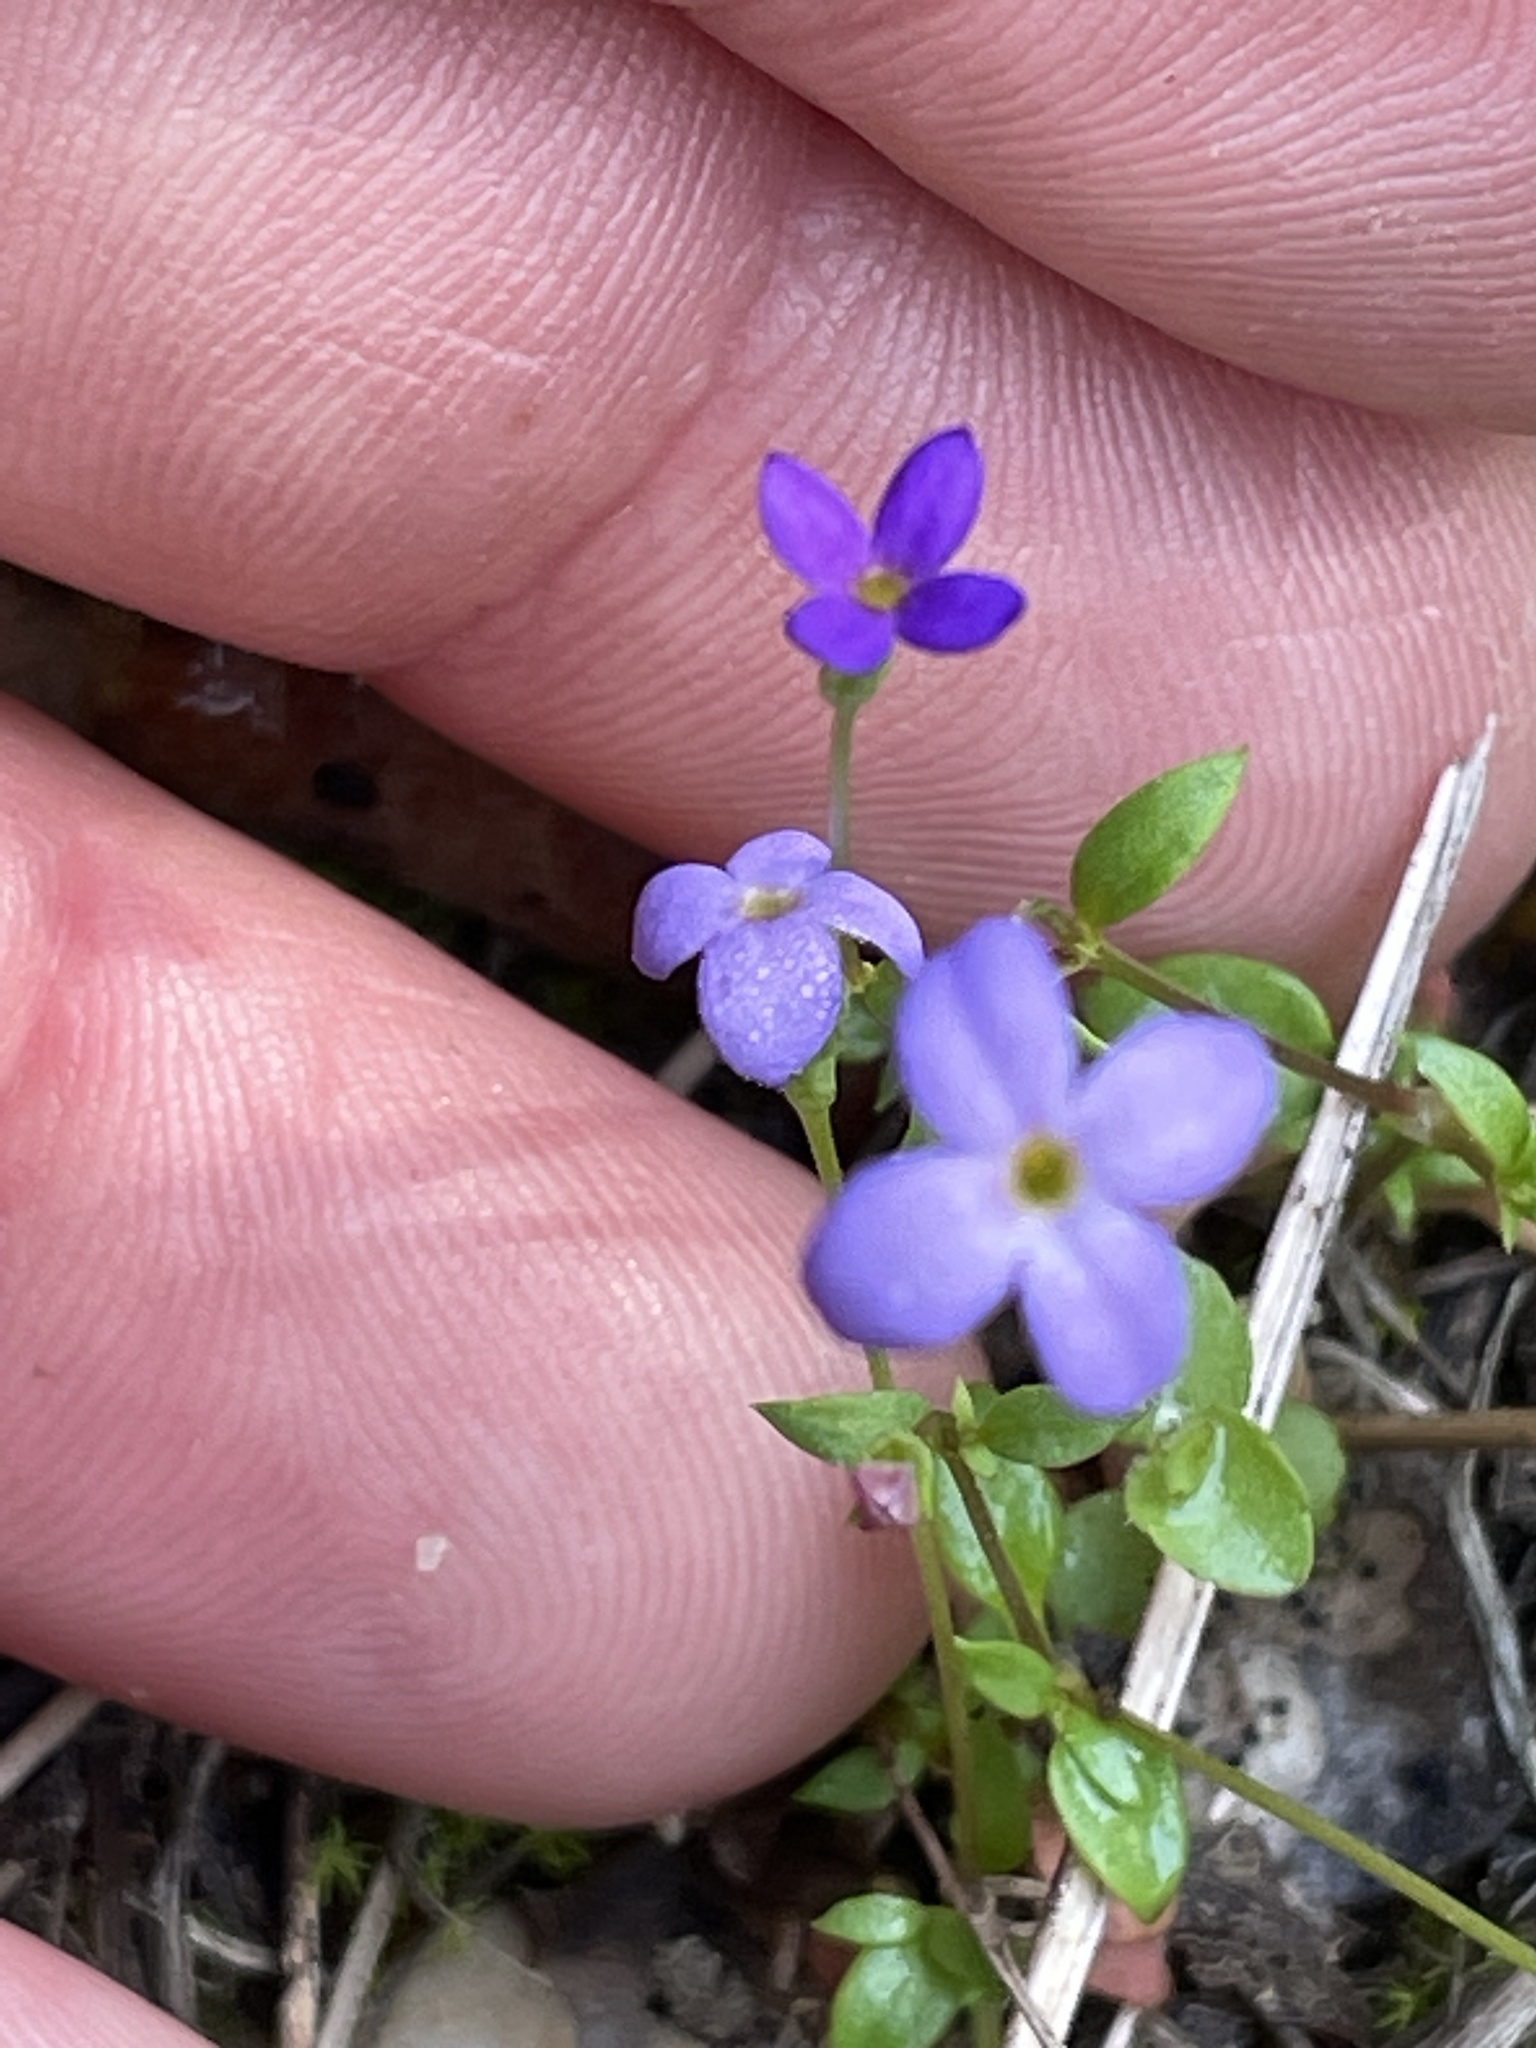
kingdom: Plantae
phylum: Tracheophyta
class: Magnoliopsida
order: Gentianales
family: Rubiaceae
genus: Houstonia
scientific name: Houstonia pusilla
